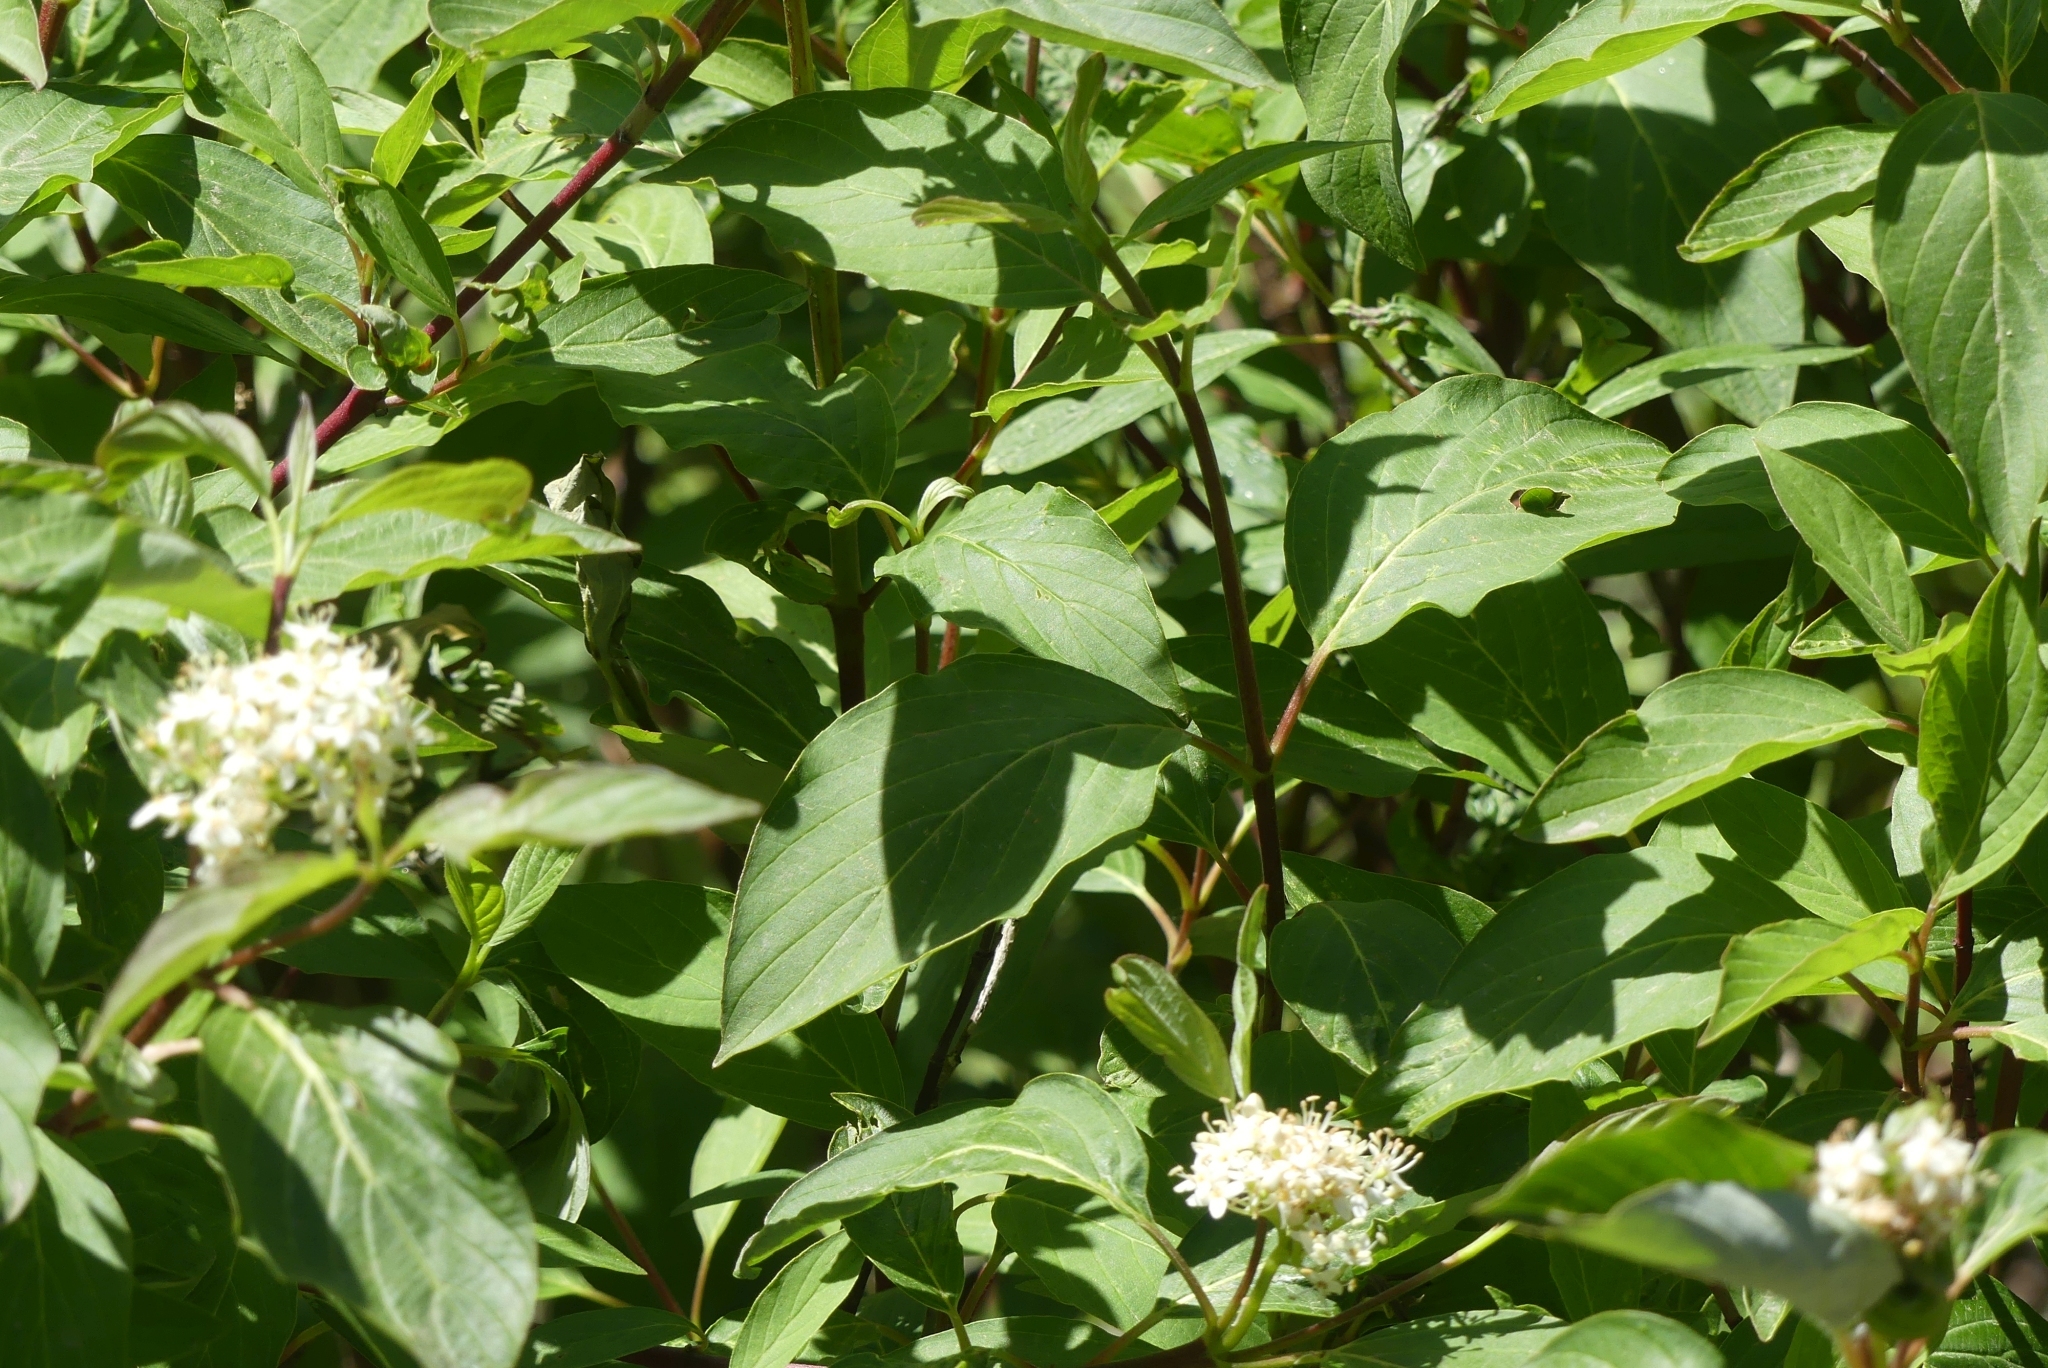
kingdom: Plantae
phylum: Tracheophyta
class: Magnoliopsida
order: Cornales
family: Cornaceae
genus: Cornus
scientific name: Cornus sericea
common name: Red-osier dogwood
